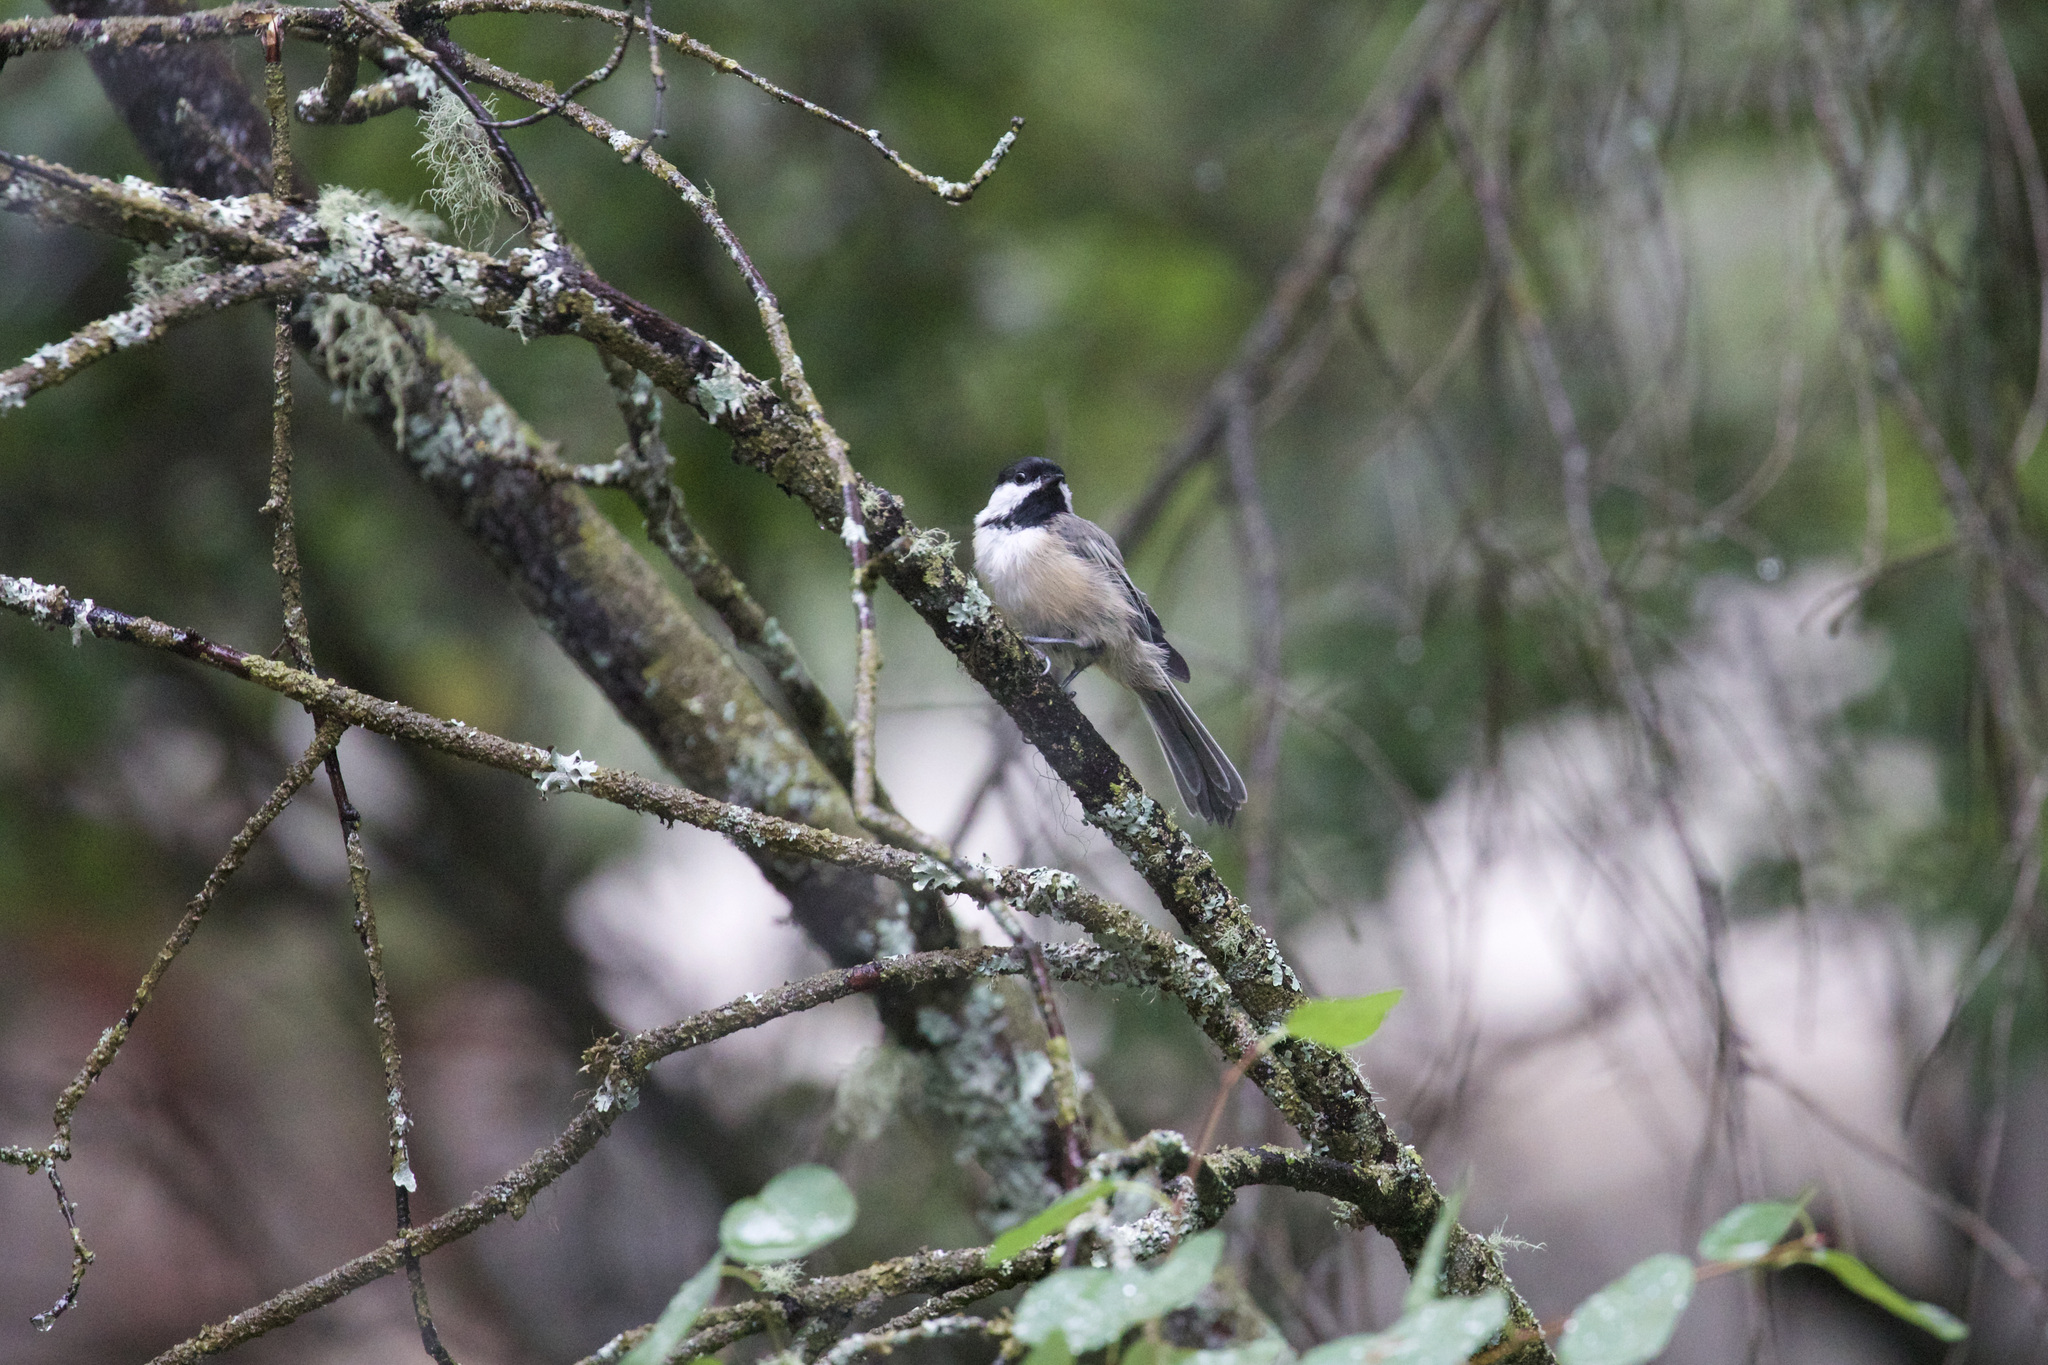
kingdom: Animalia
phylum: Chordata
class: Aves
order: Passeriformes
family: Paridae
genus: Poecile
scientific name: Poecile atricapillus
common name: Black-capped chickadee
